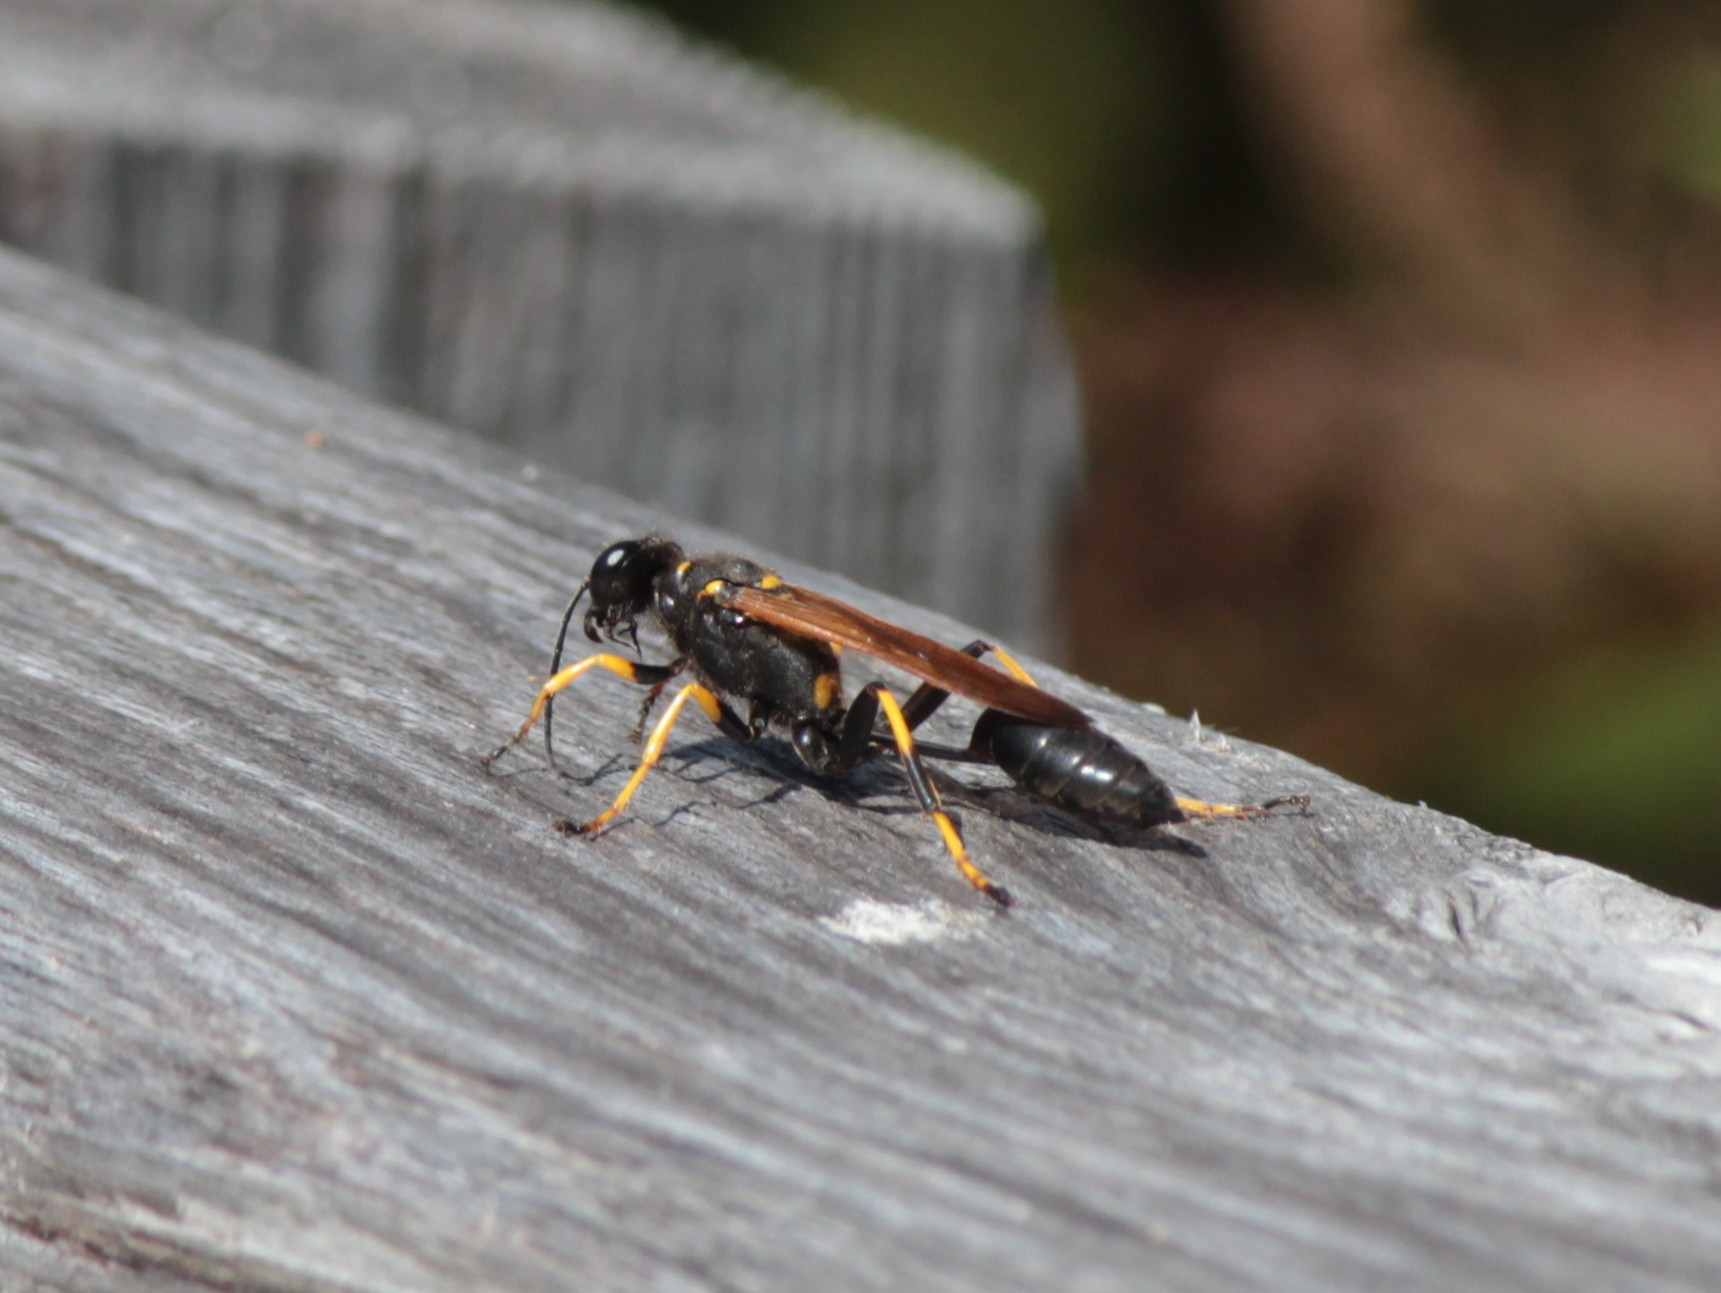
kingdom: Animalia
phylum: Arthropoda
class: Insecta
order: Hymenoptera
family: Sphecidae
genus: Sceliphron
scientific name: Sceliphron caementarium
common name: Mud dauber
